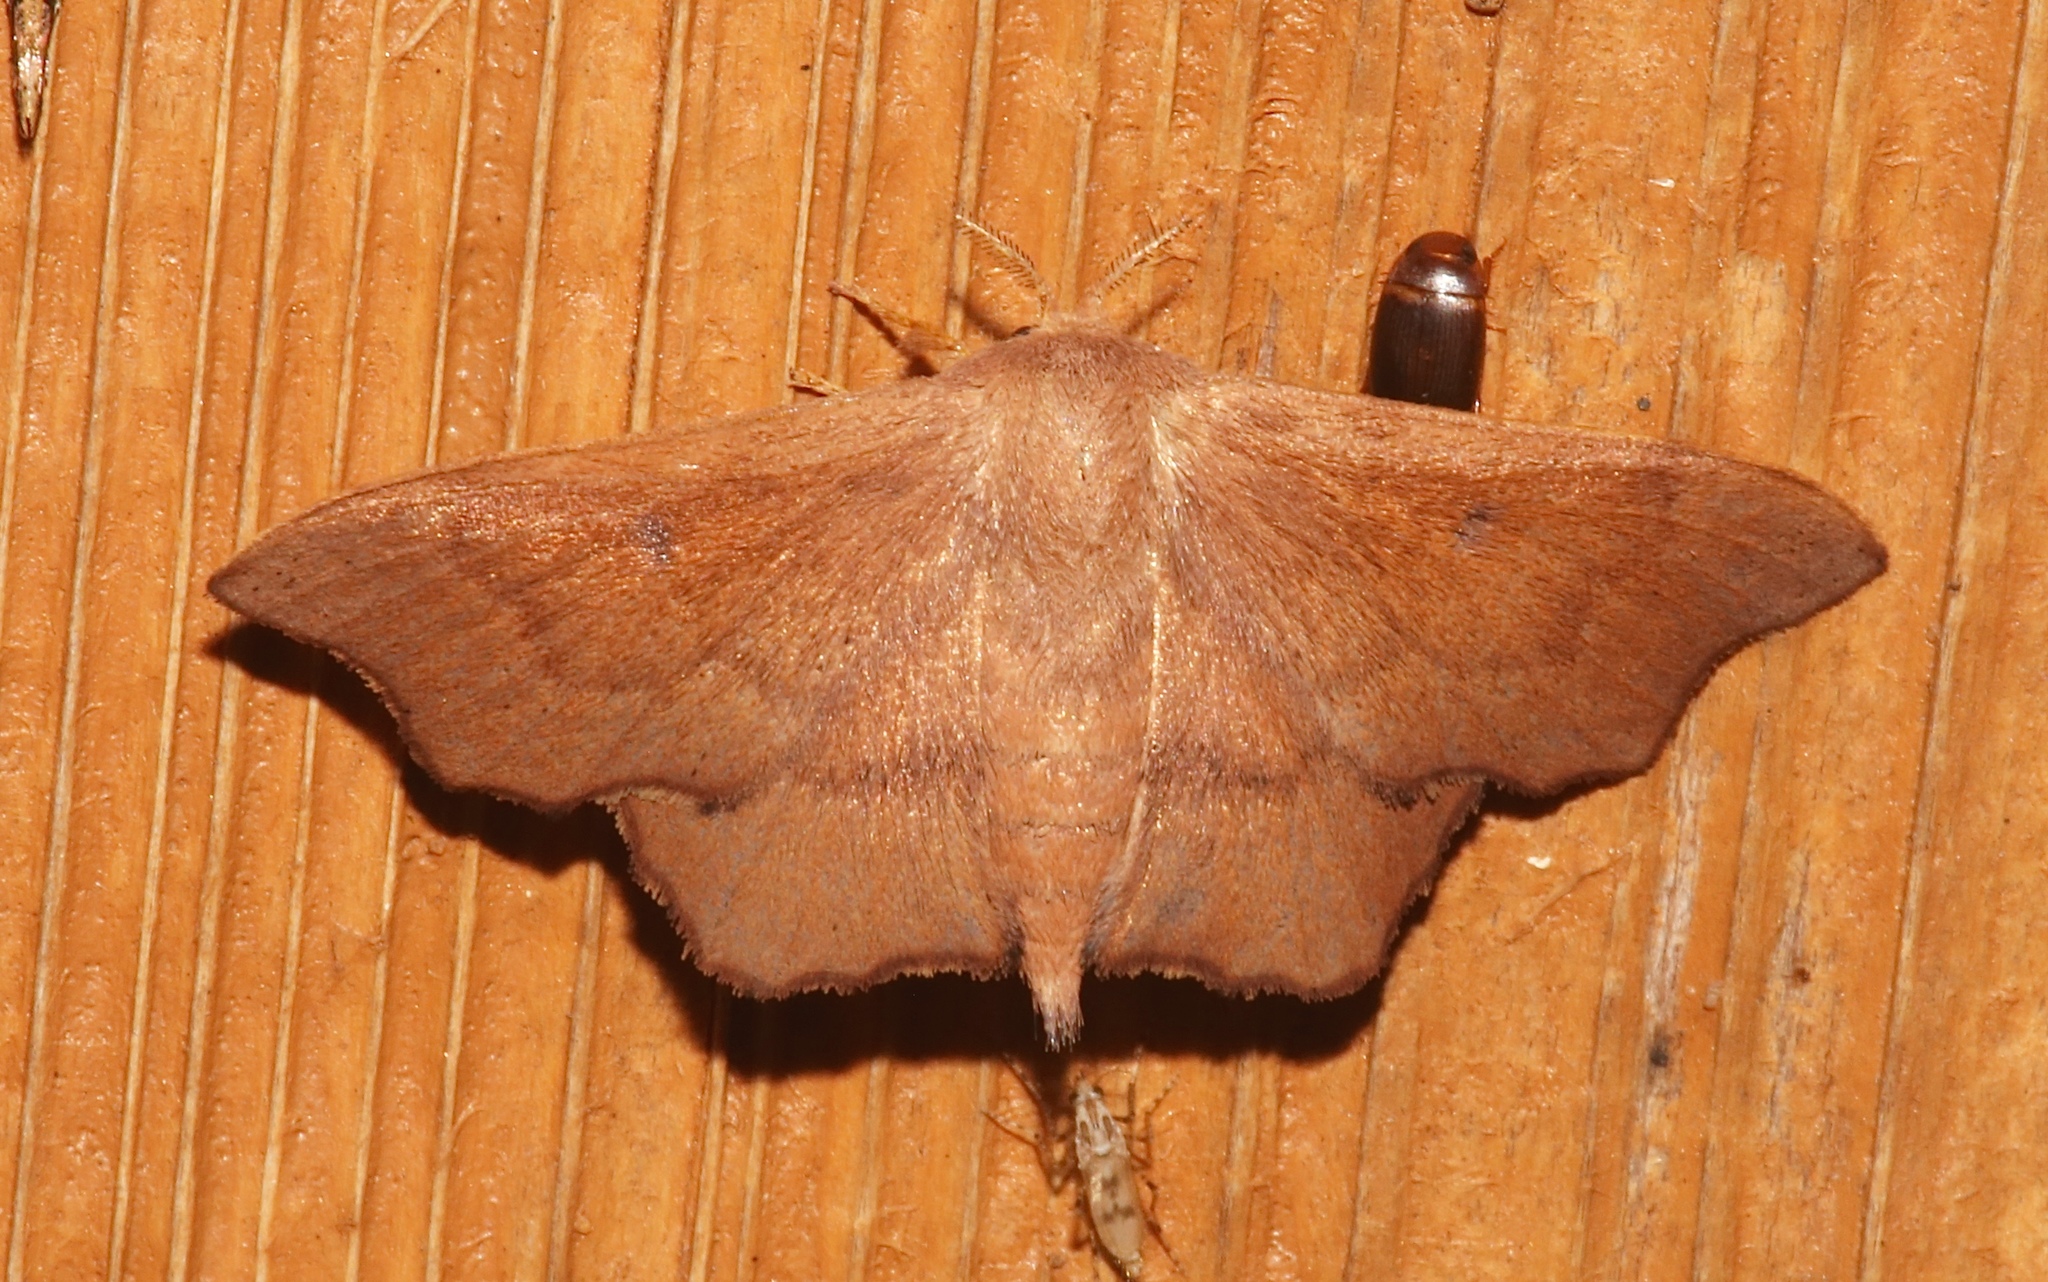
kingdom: Animalia
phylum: Arthropoda
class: Insecta
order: Lepidoptera
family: Mimallonidae
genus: Lacosoma
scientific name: Lacosoma chiridota
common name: Scalloped sack-bearer moth
